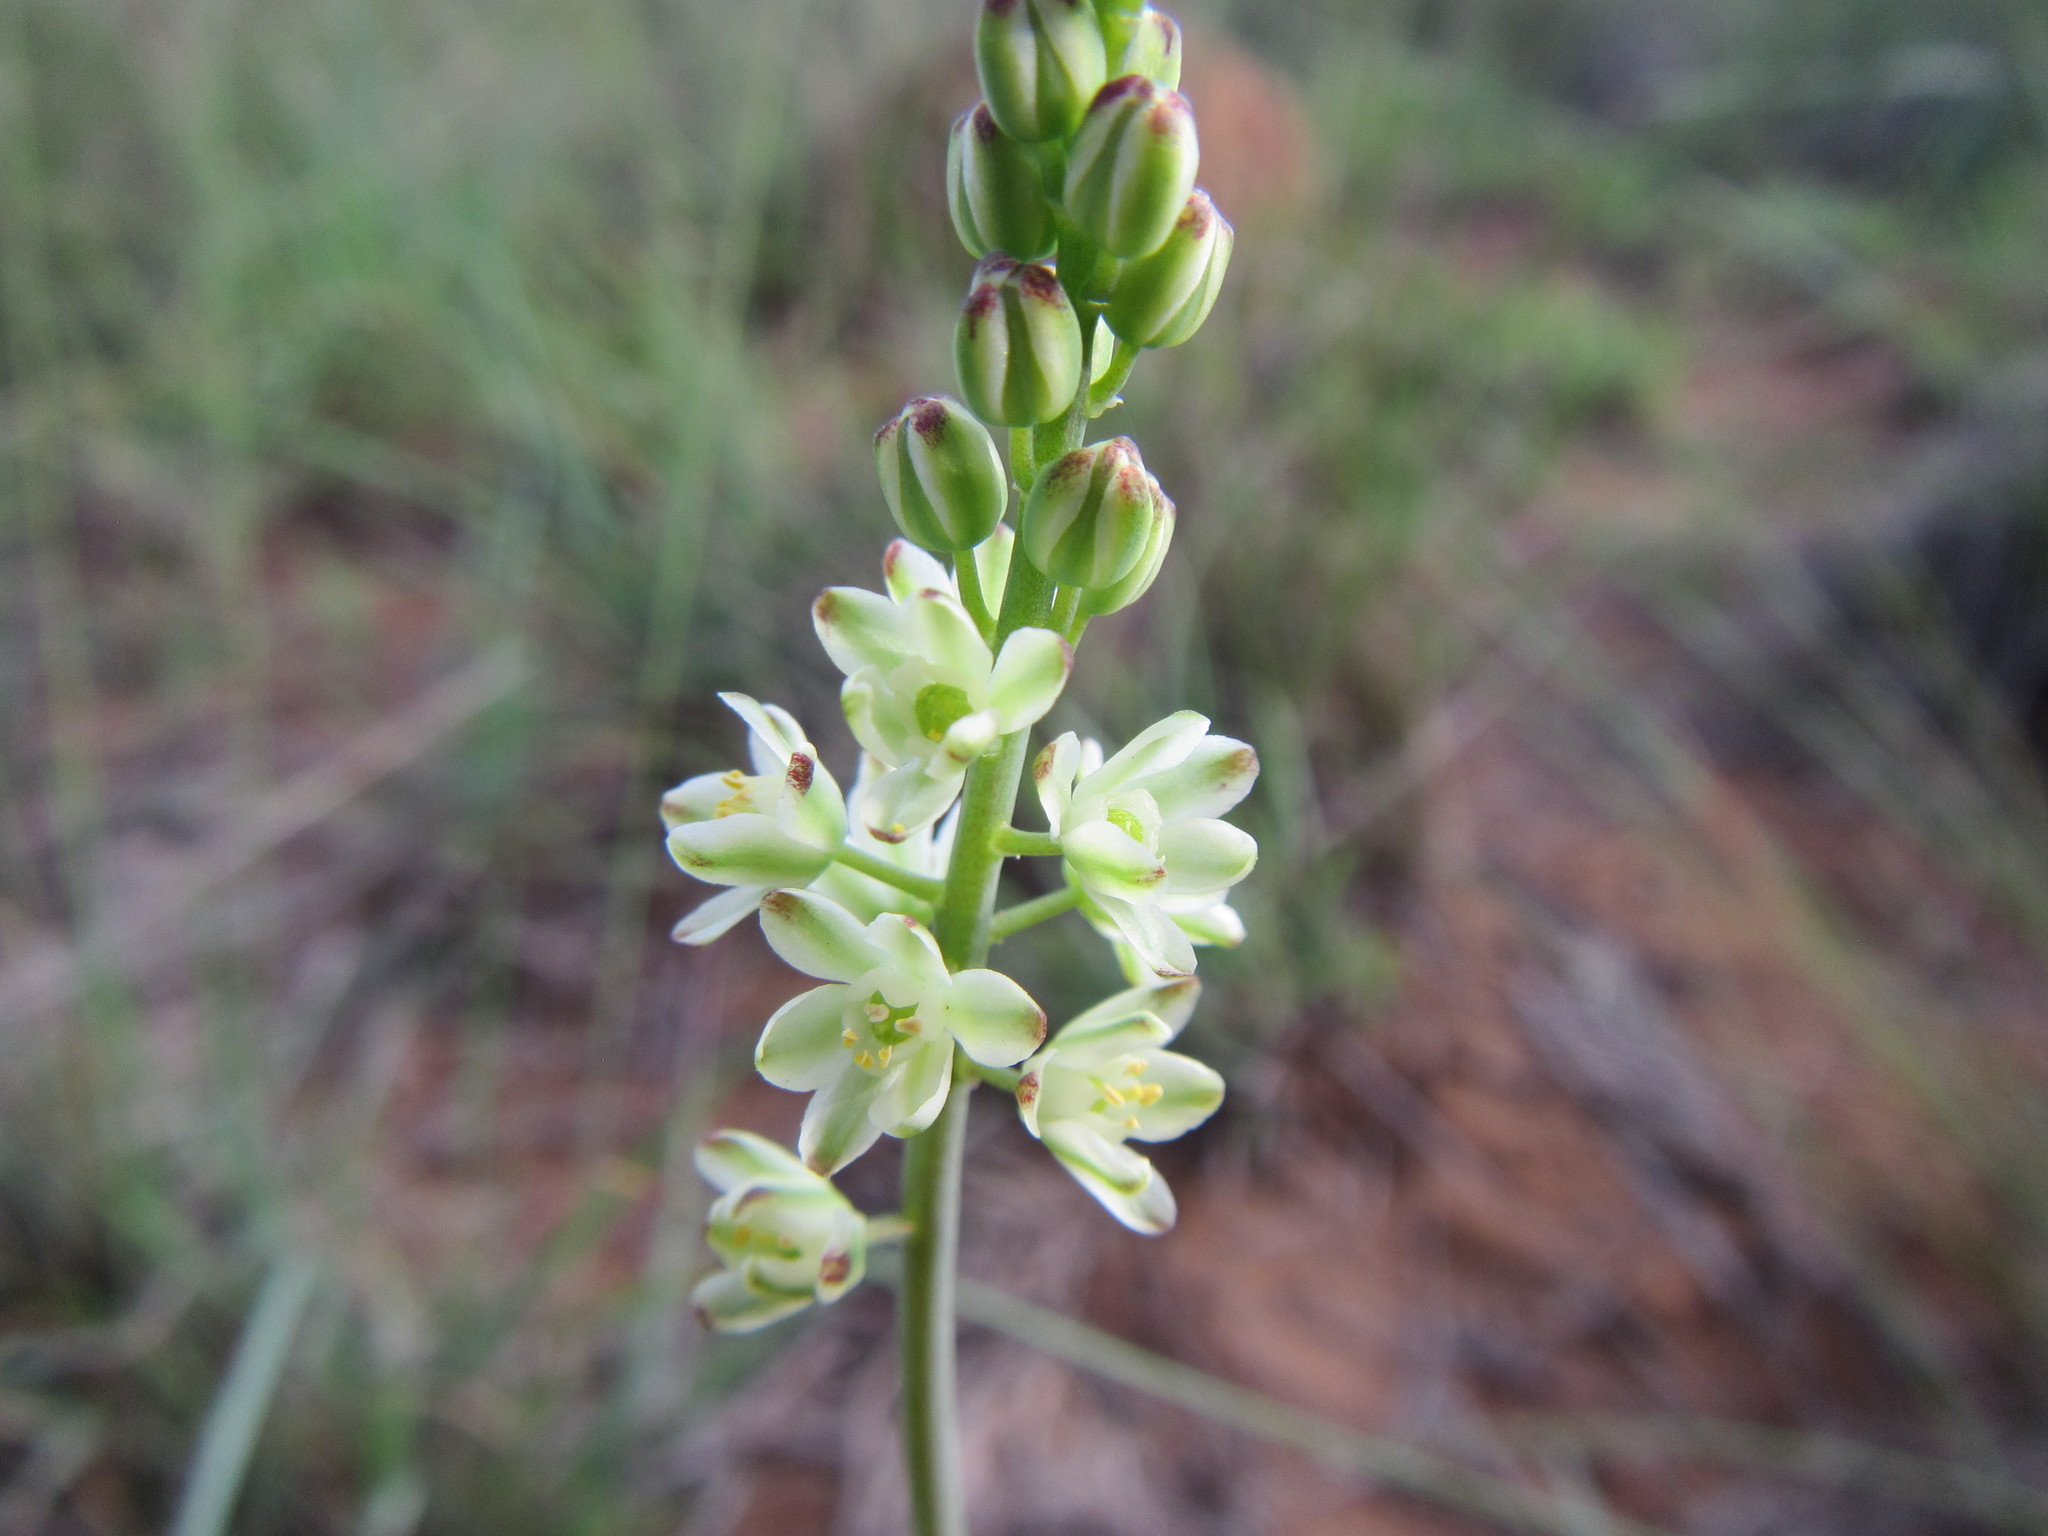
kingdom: Plantae
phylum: Tracheophyta
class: Liliopsida
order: Asparagales
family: Asparagaceae
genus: Eriospermum
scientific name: Eriospermum zeyheri
